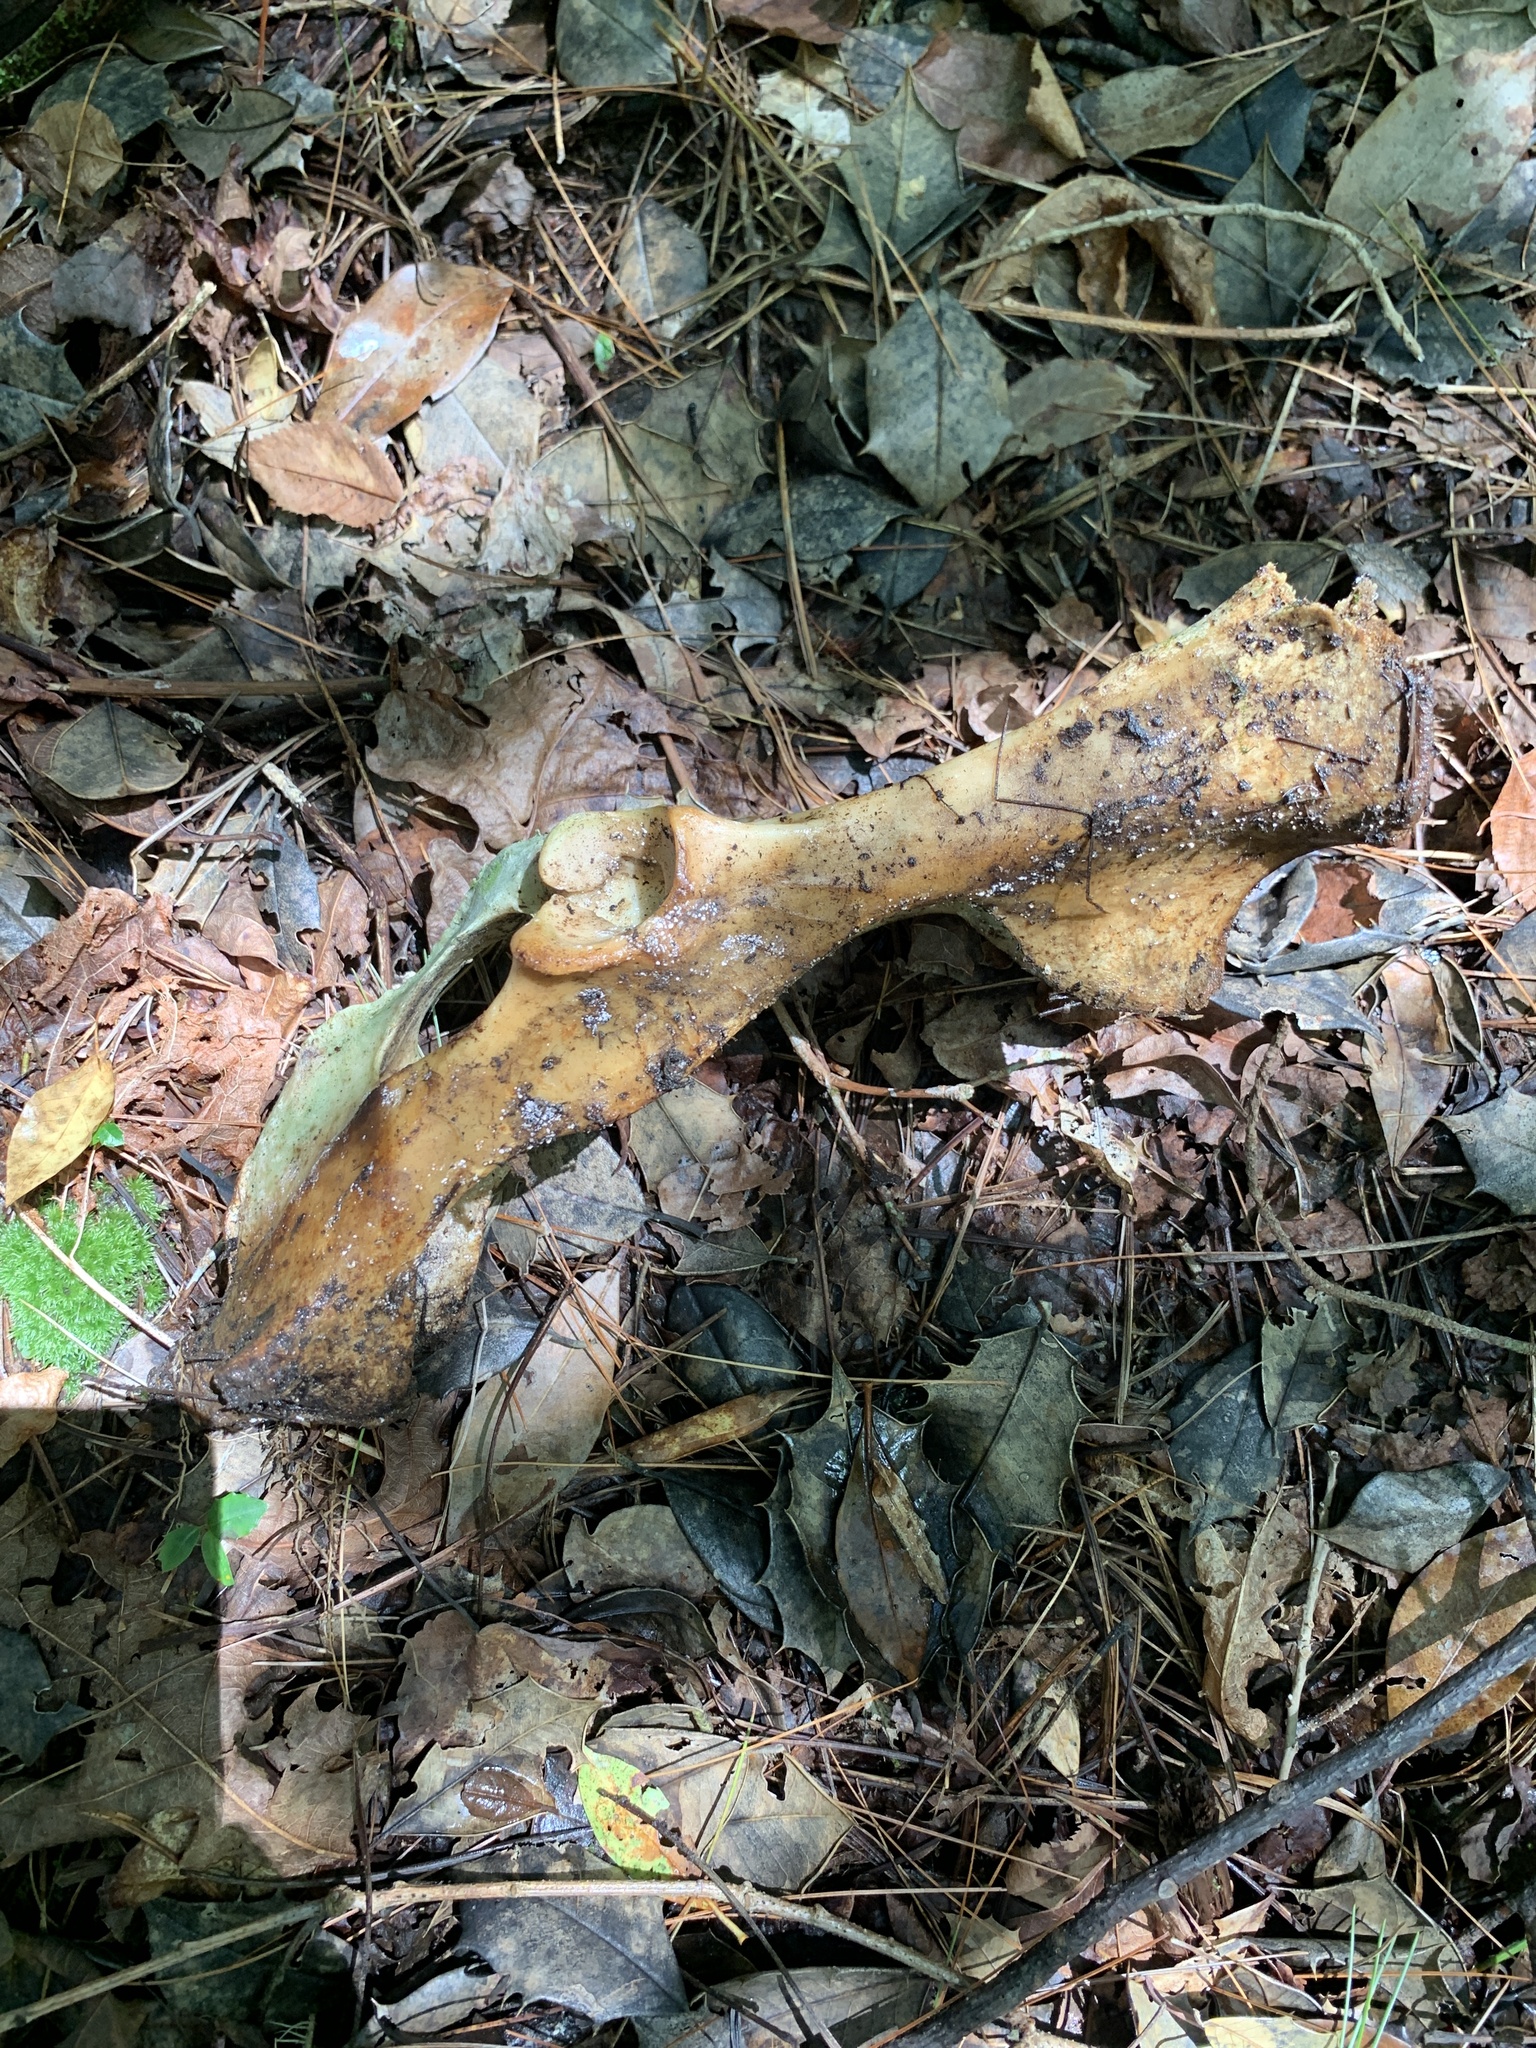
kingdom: Animalia
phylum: Chordata
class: Mammalia
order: Artiodactyla
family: Cervidae
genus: Odocoileus
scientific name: Odocoileus virginianus
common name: White-tailed deer
